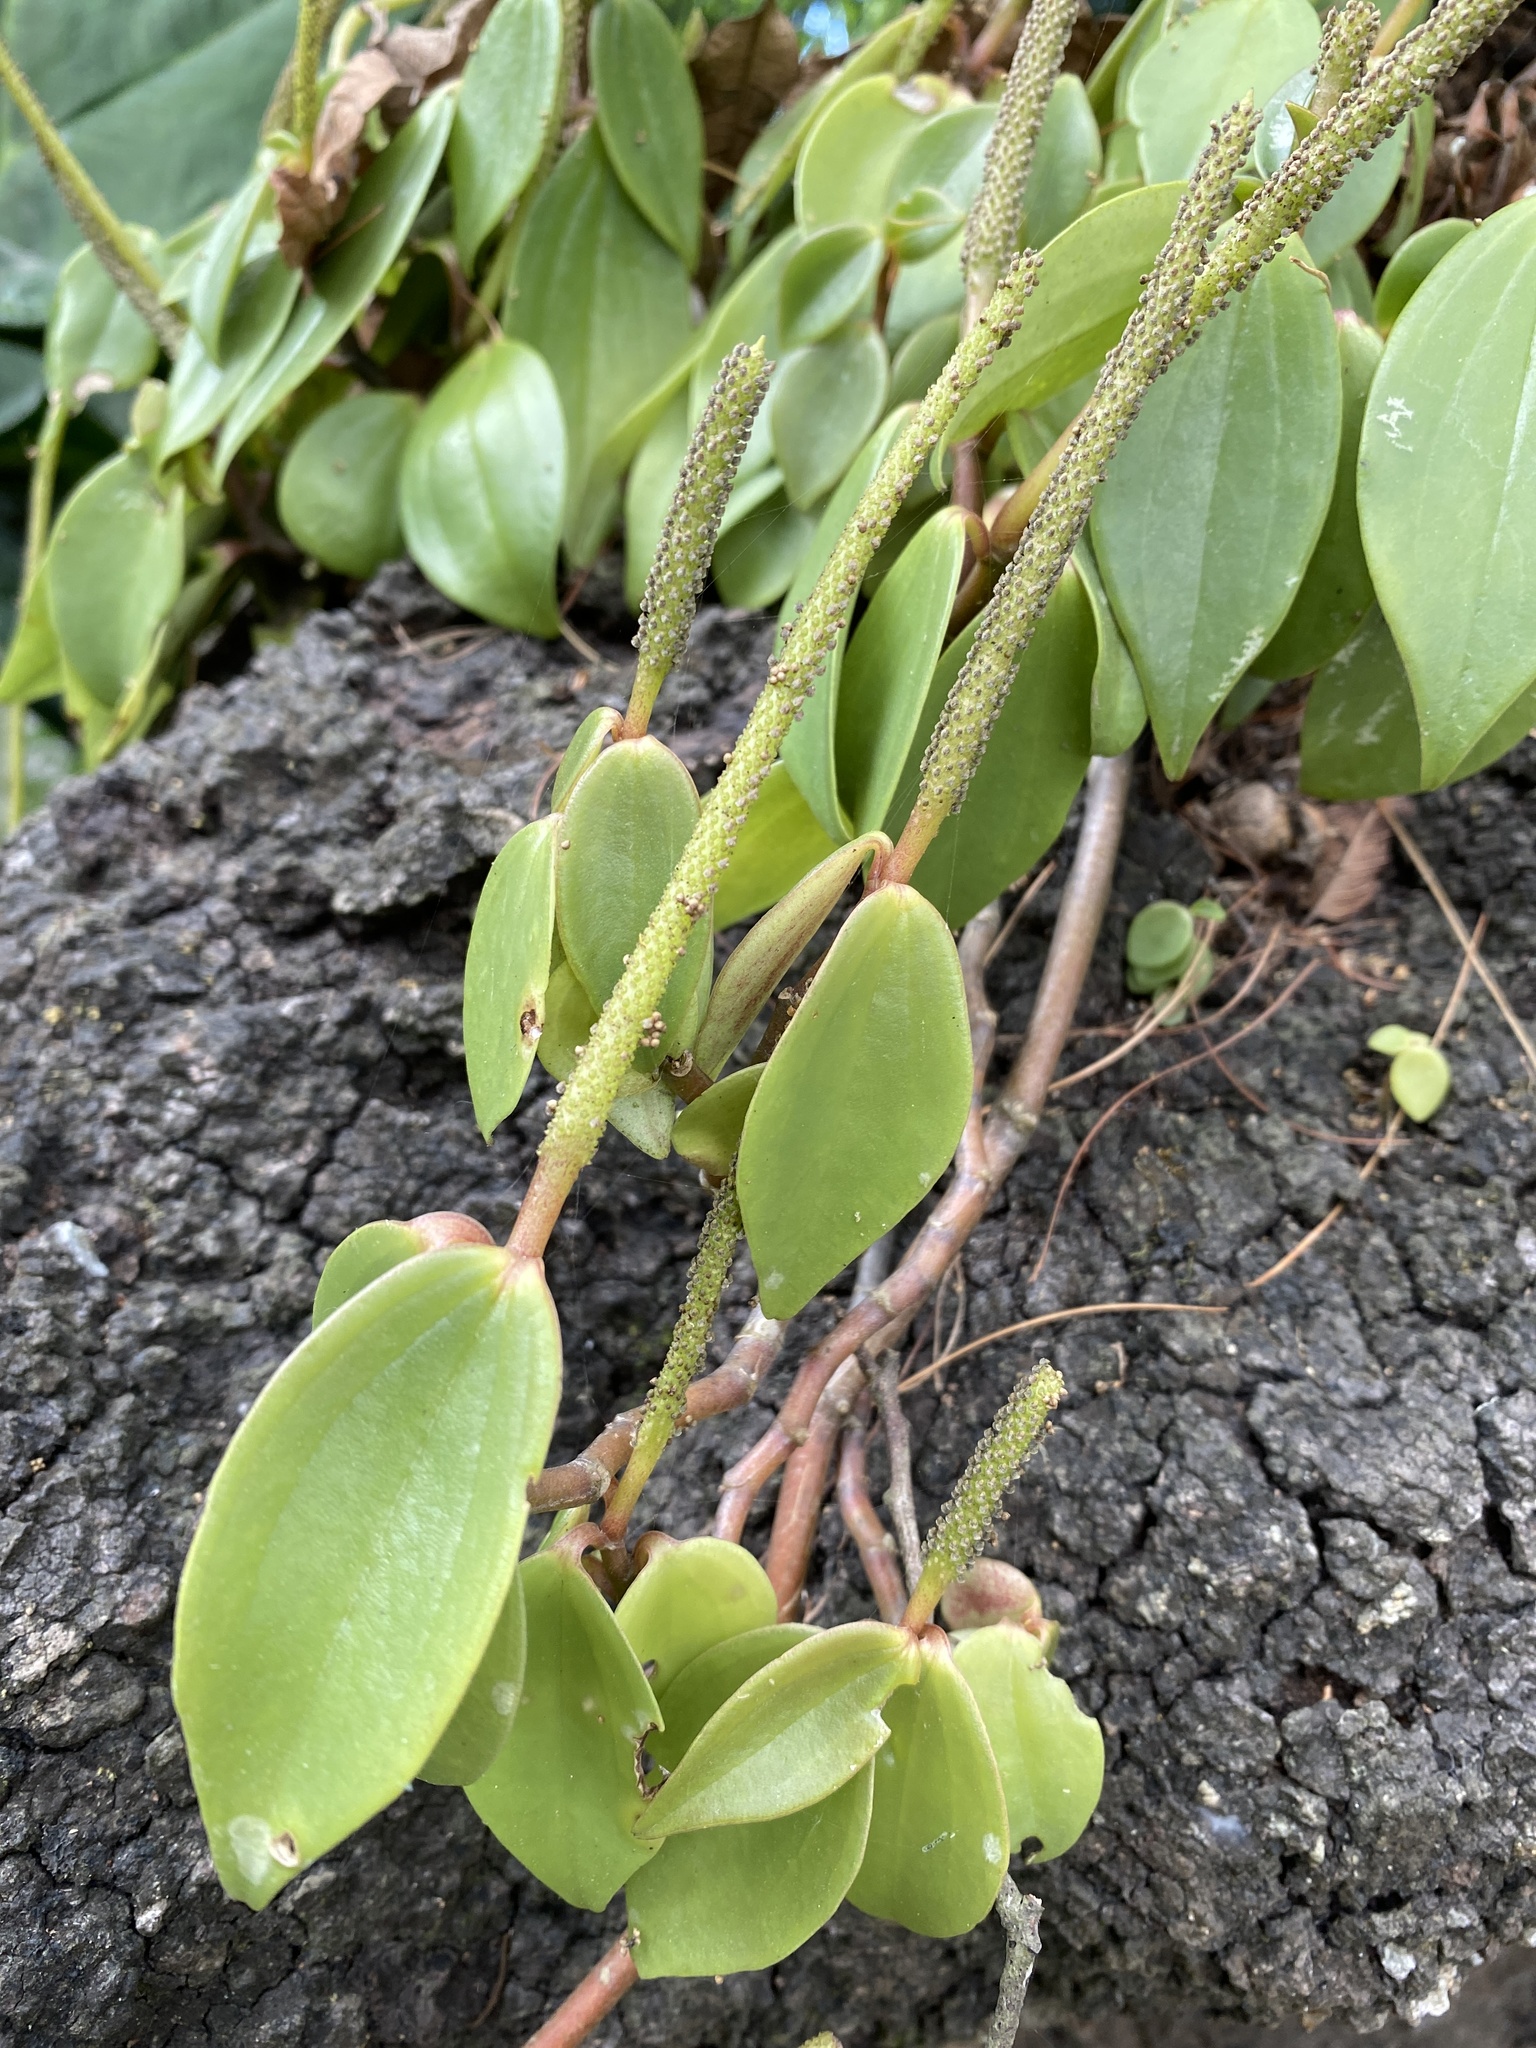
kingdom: Plantae
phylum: Tracheophyta
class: Magnoliopsida
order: Piperales
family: Piperaceae
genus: Peperomia
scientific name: Peperomia san-joseana
